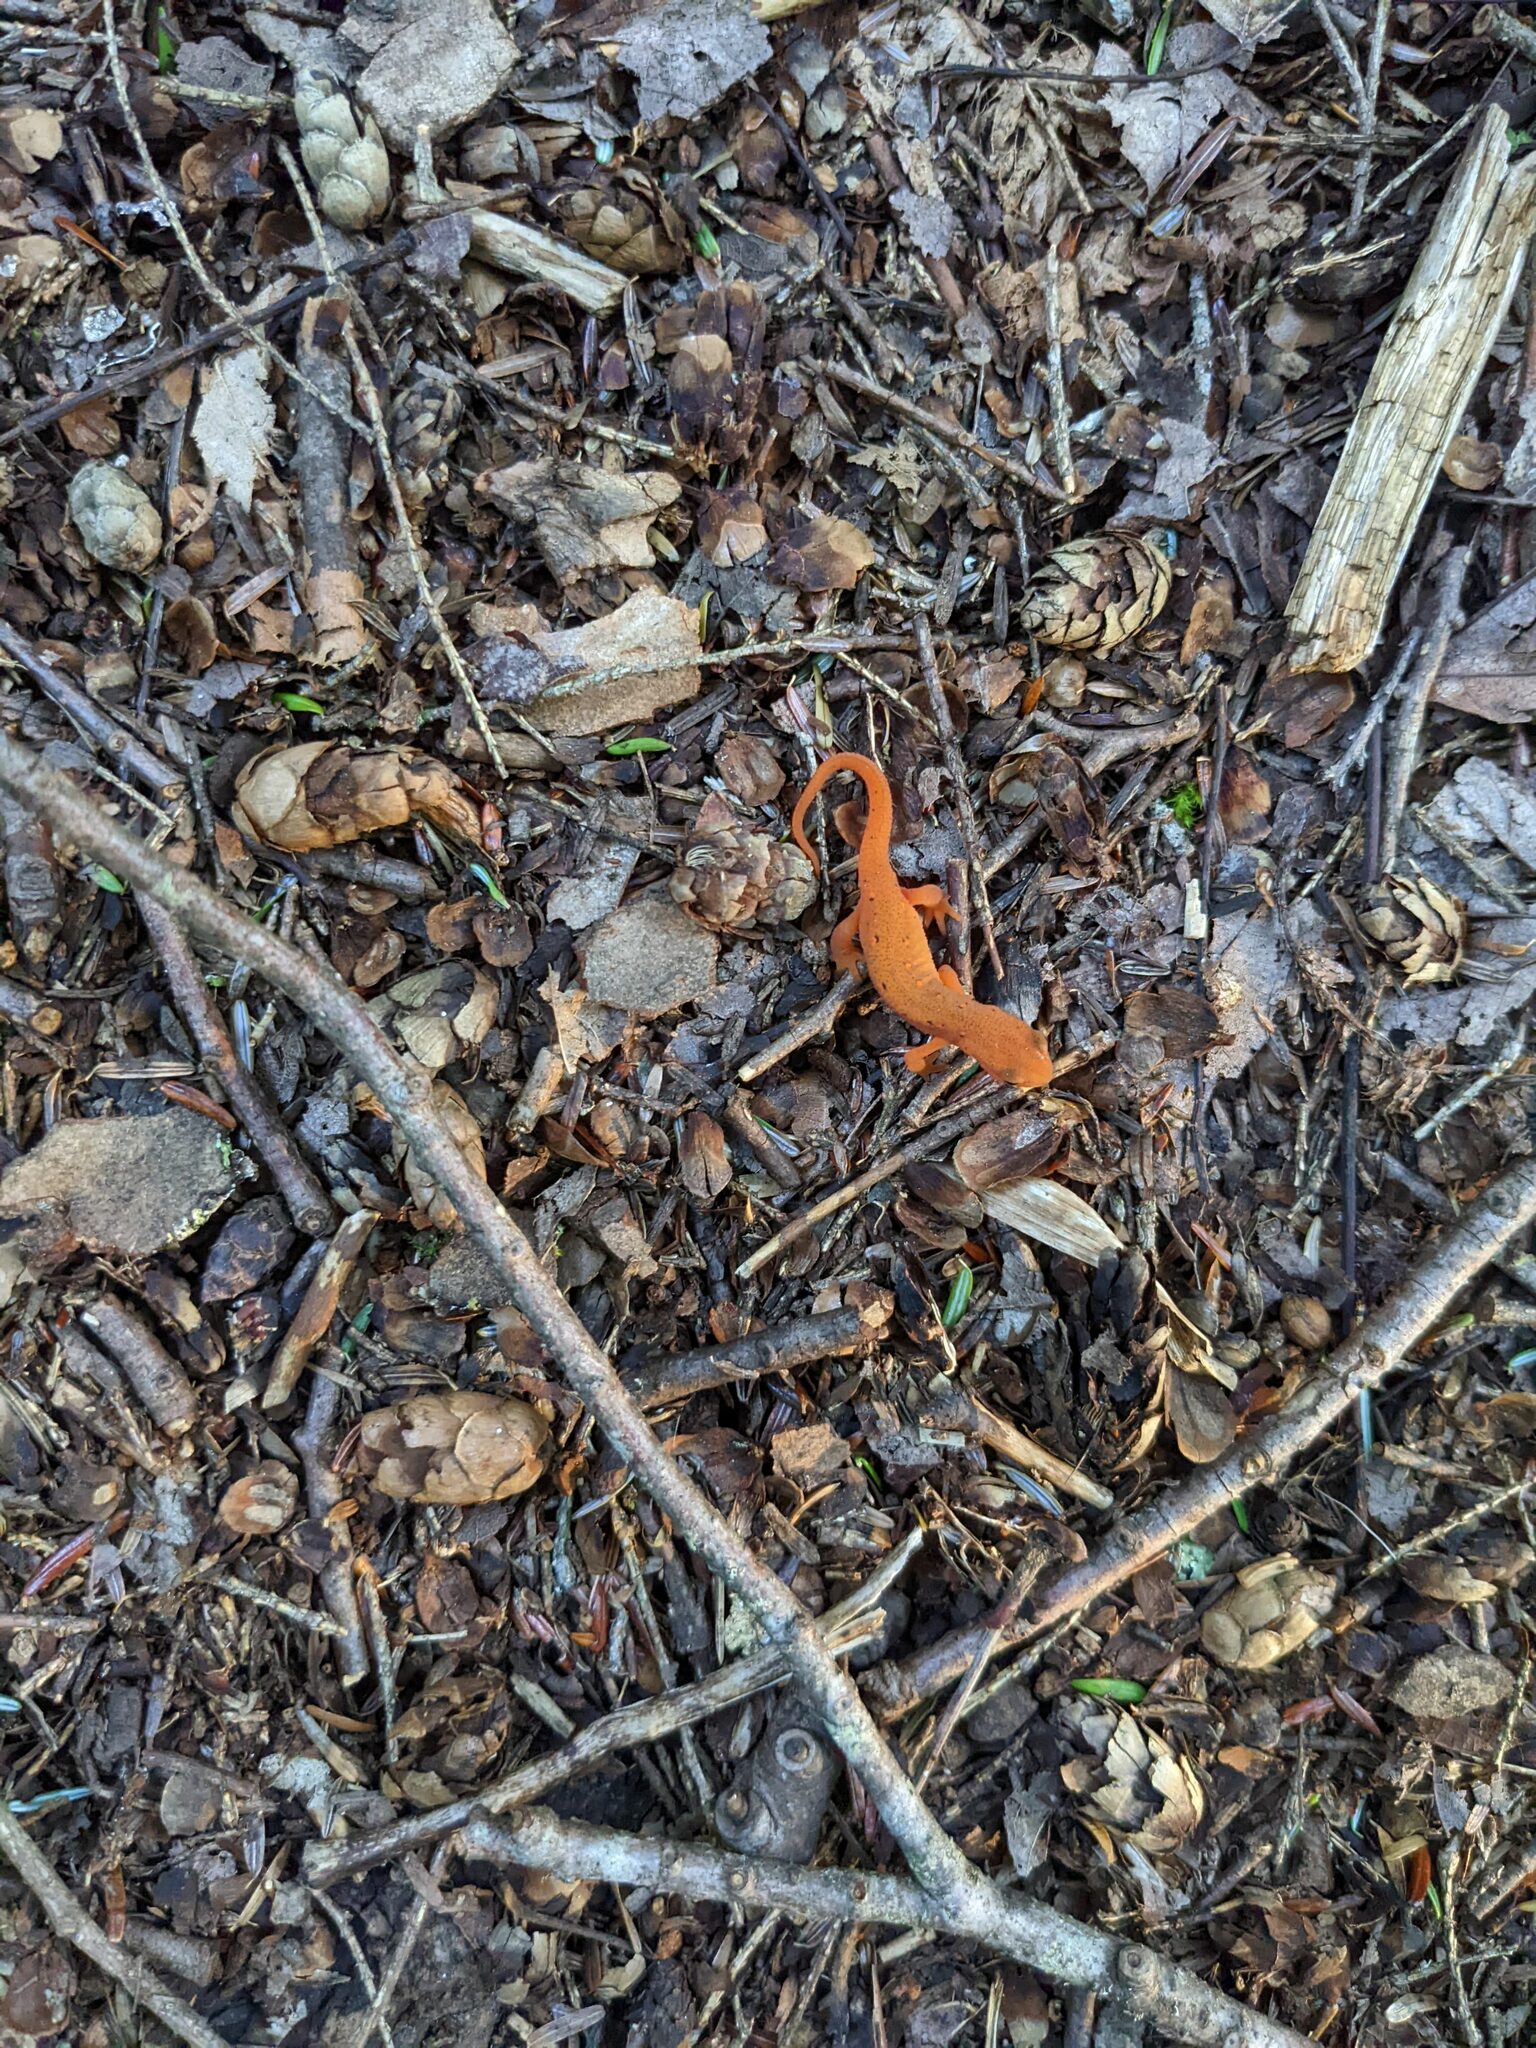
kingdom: Animalia
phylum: Chordata
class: Amphibia
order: Caudata
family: Salamandridae
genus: Notophthalmus
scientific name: Notophthalmus viridescens
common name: Eastern newt
